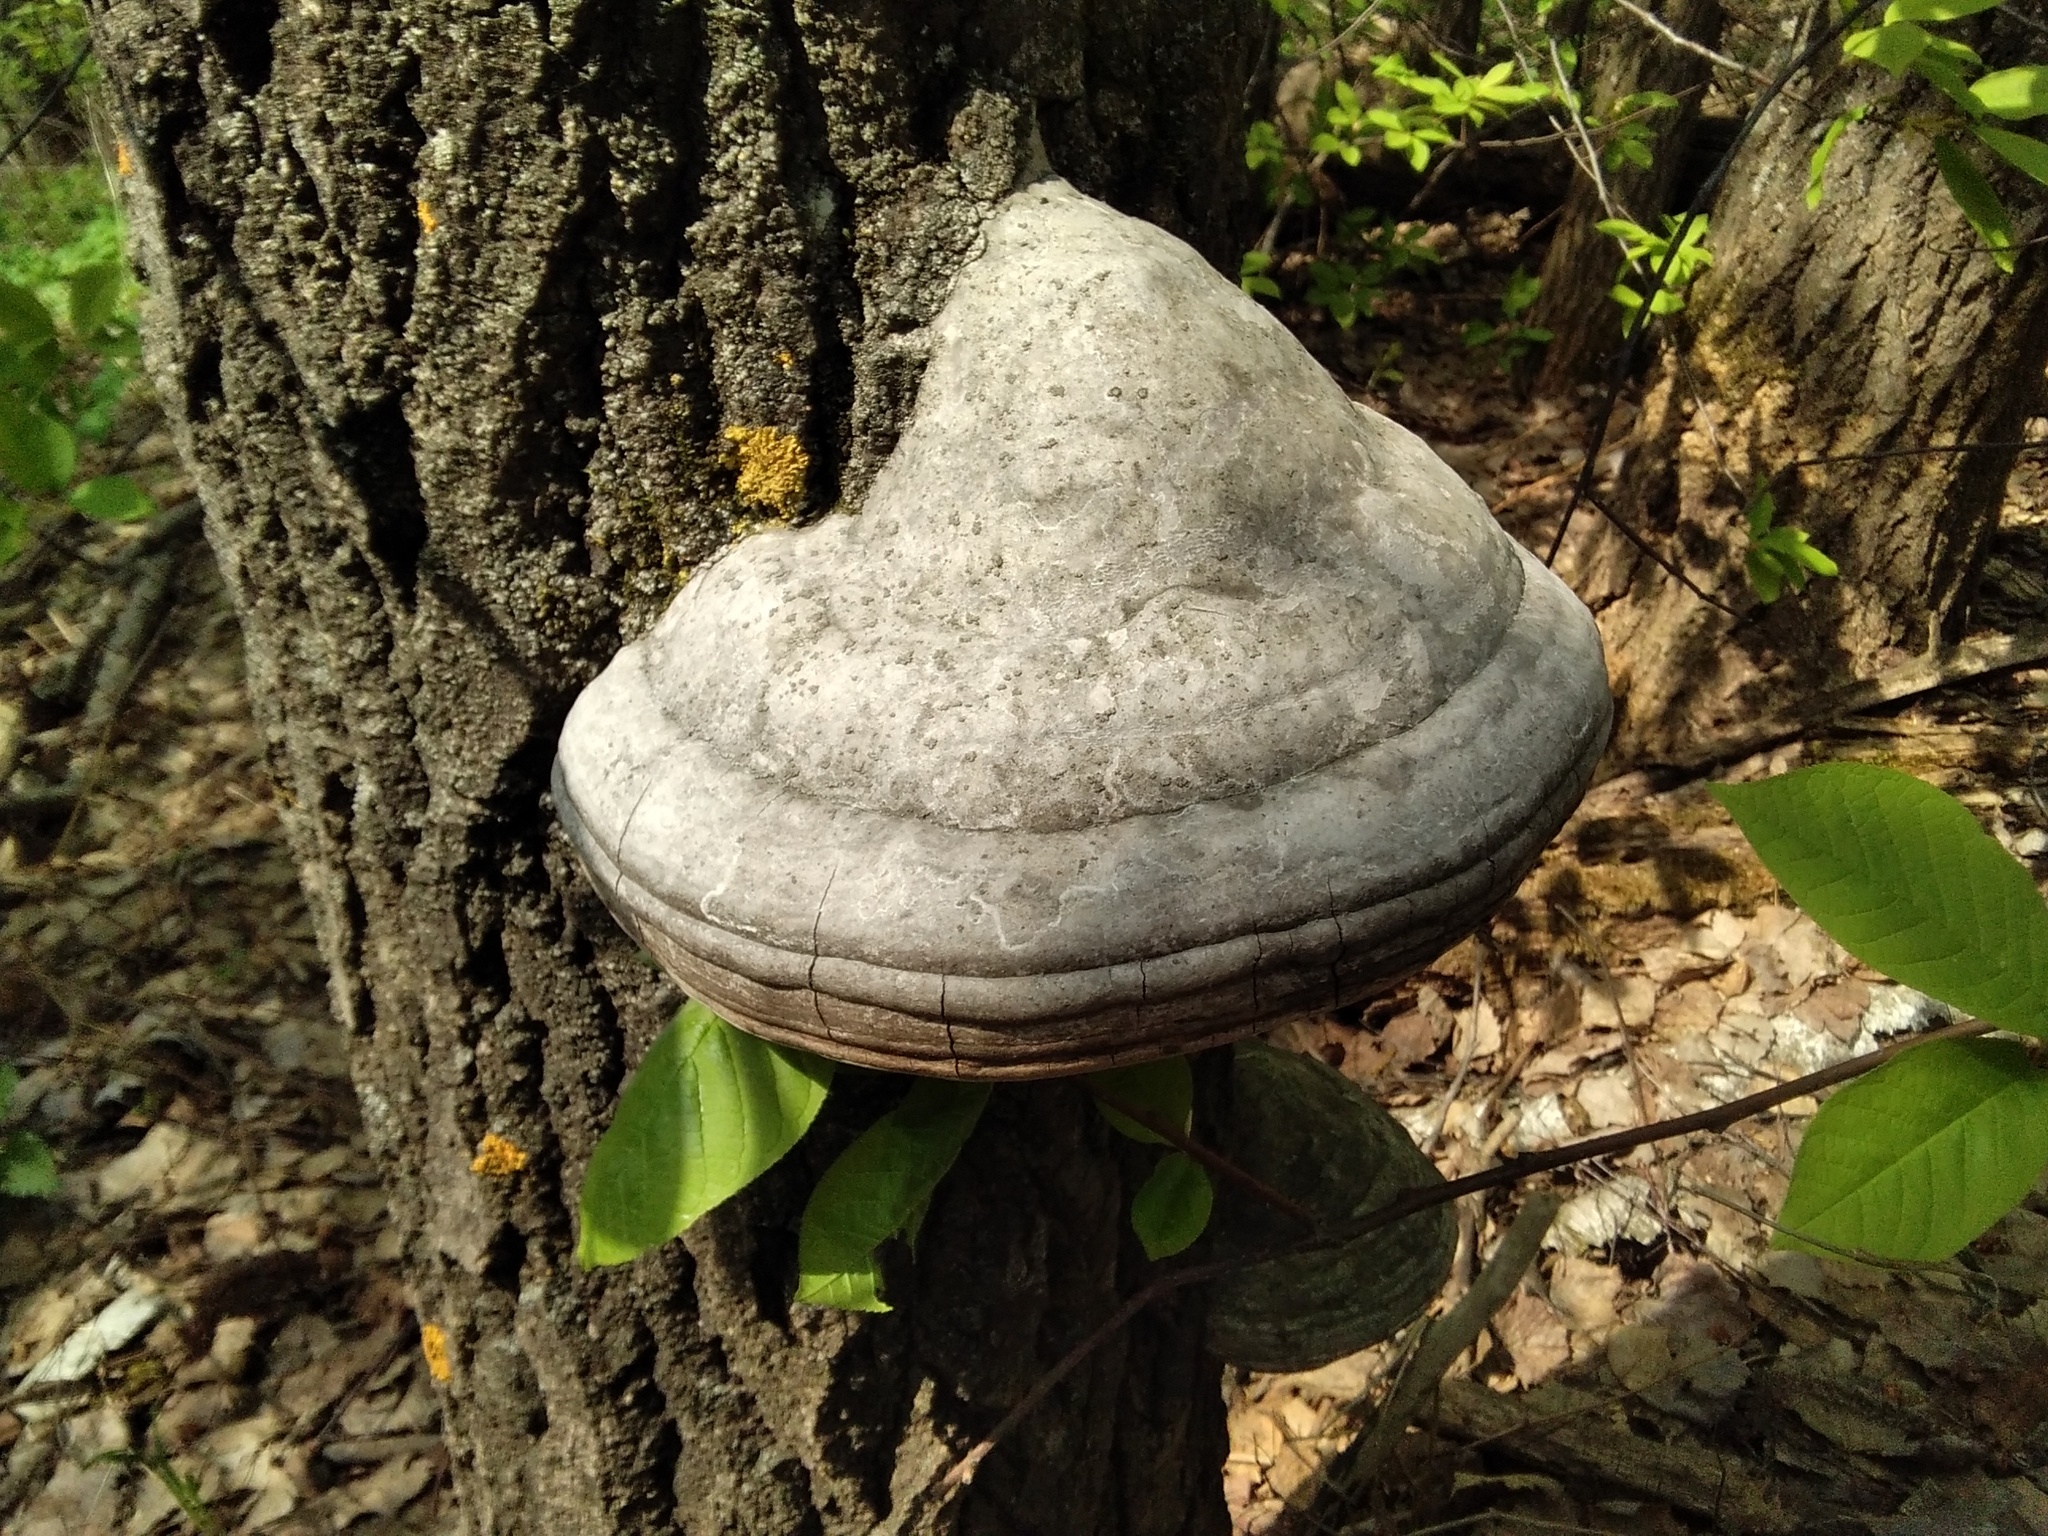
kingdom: Fungi
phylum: Basidiomycota
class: Agaricomycetes
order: Polyporales
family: Polyporaceae
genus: Fomes
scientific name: Fomes fomentarius
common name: Hoof fungus
